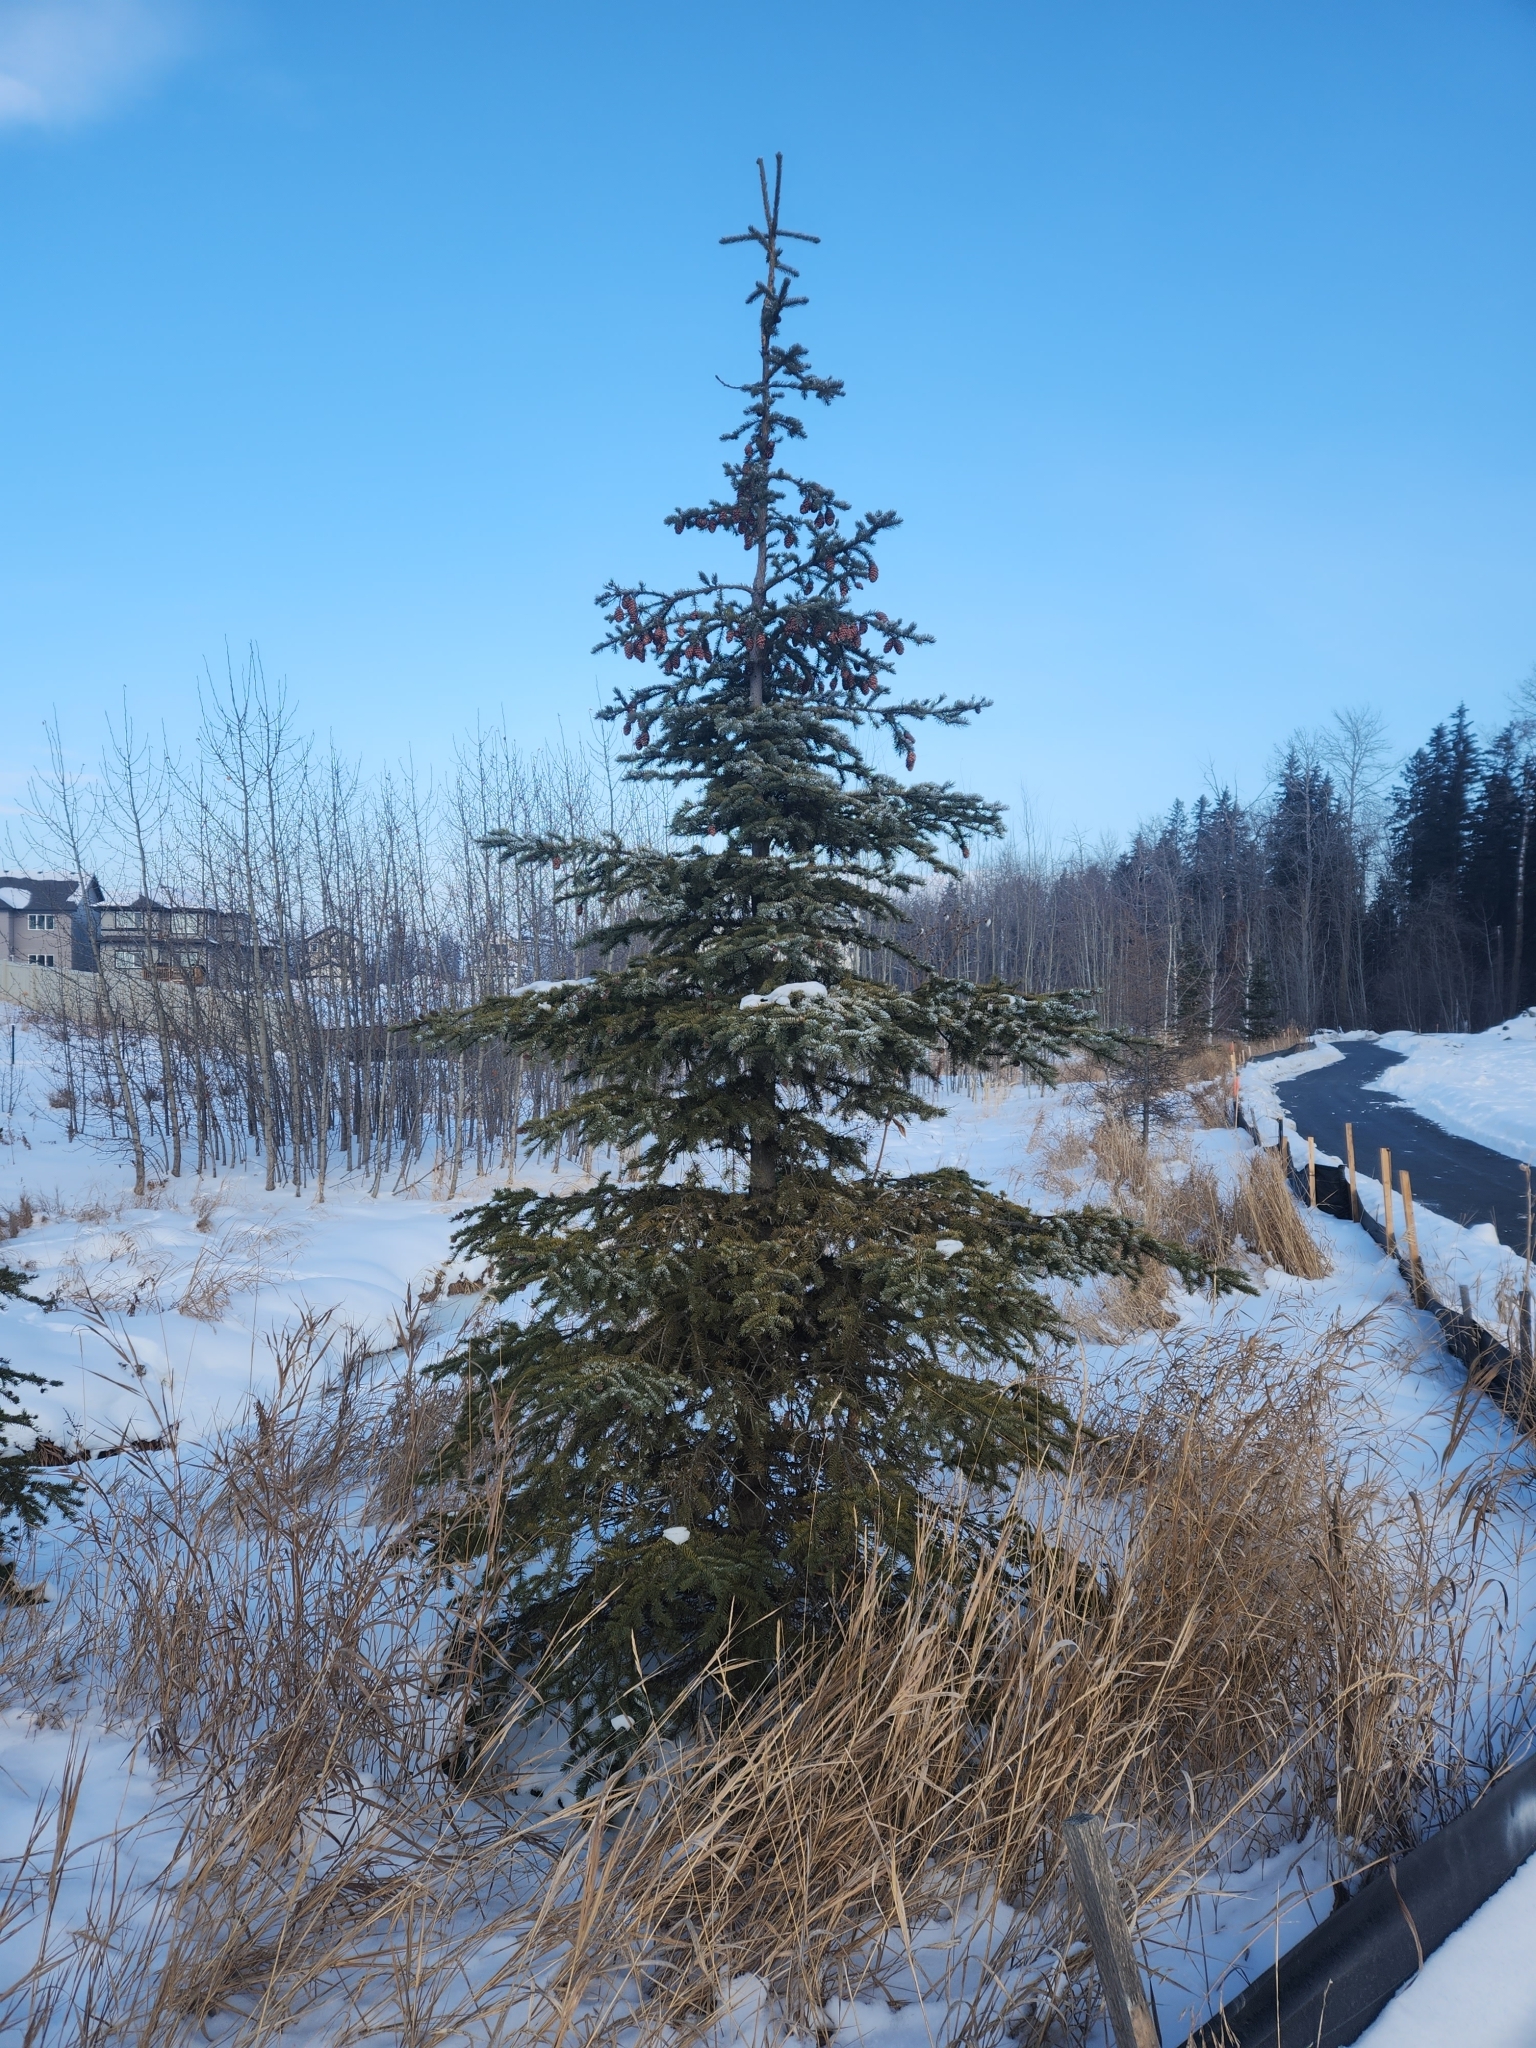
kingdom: Plantae
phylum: Tracheophyta
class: Pinopsida
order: Pinales
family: Pinaceae
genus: Picea
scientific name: Picea glauca
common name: White spruce
